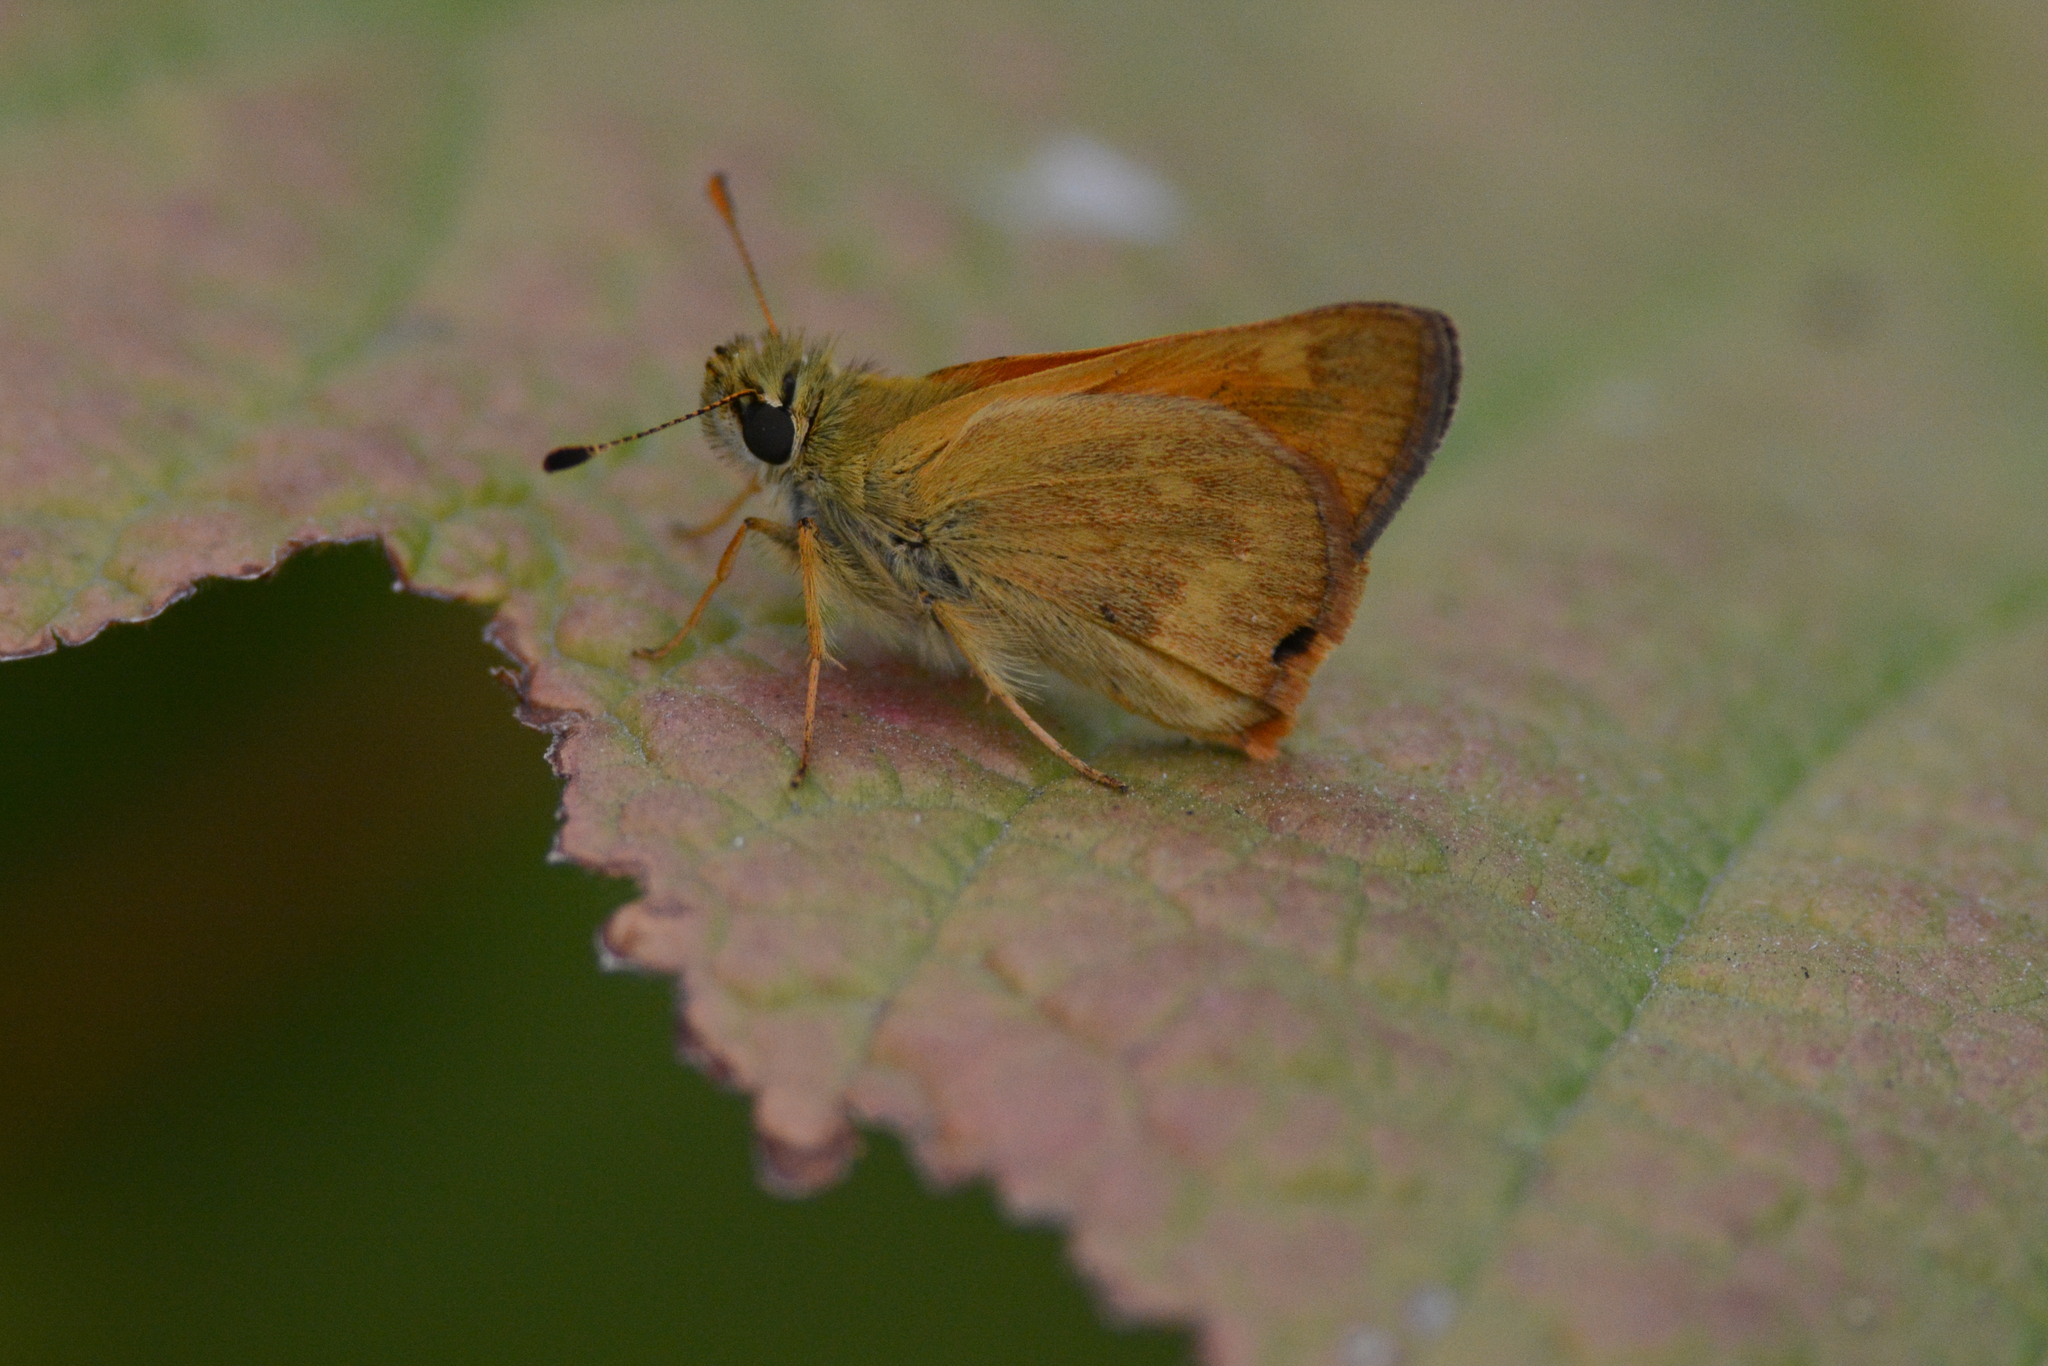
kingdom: Animalia
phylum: Arthropoda
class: Insecta
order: Lepidoptera
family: Hesperiidae
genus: Ochlodes
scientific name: Ochlodes sylvanoides
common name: Woodland skipper
